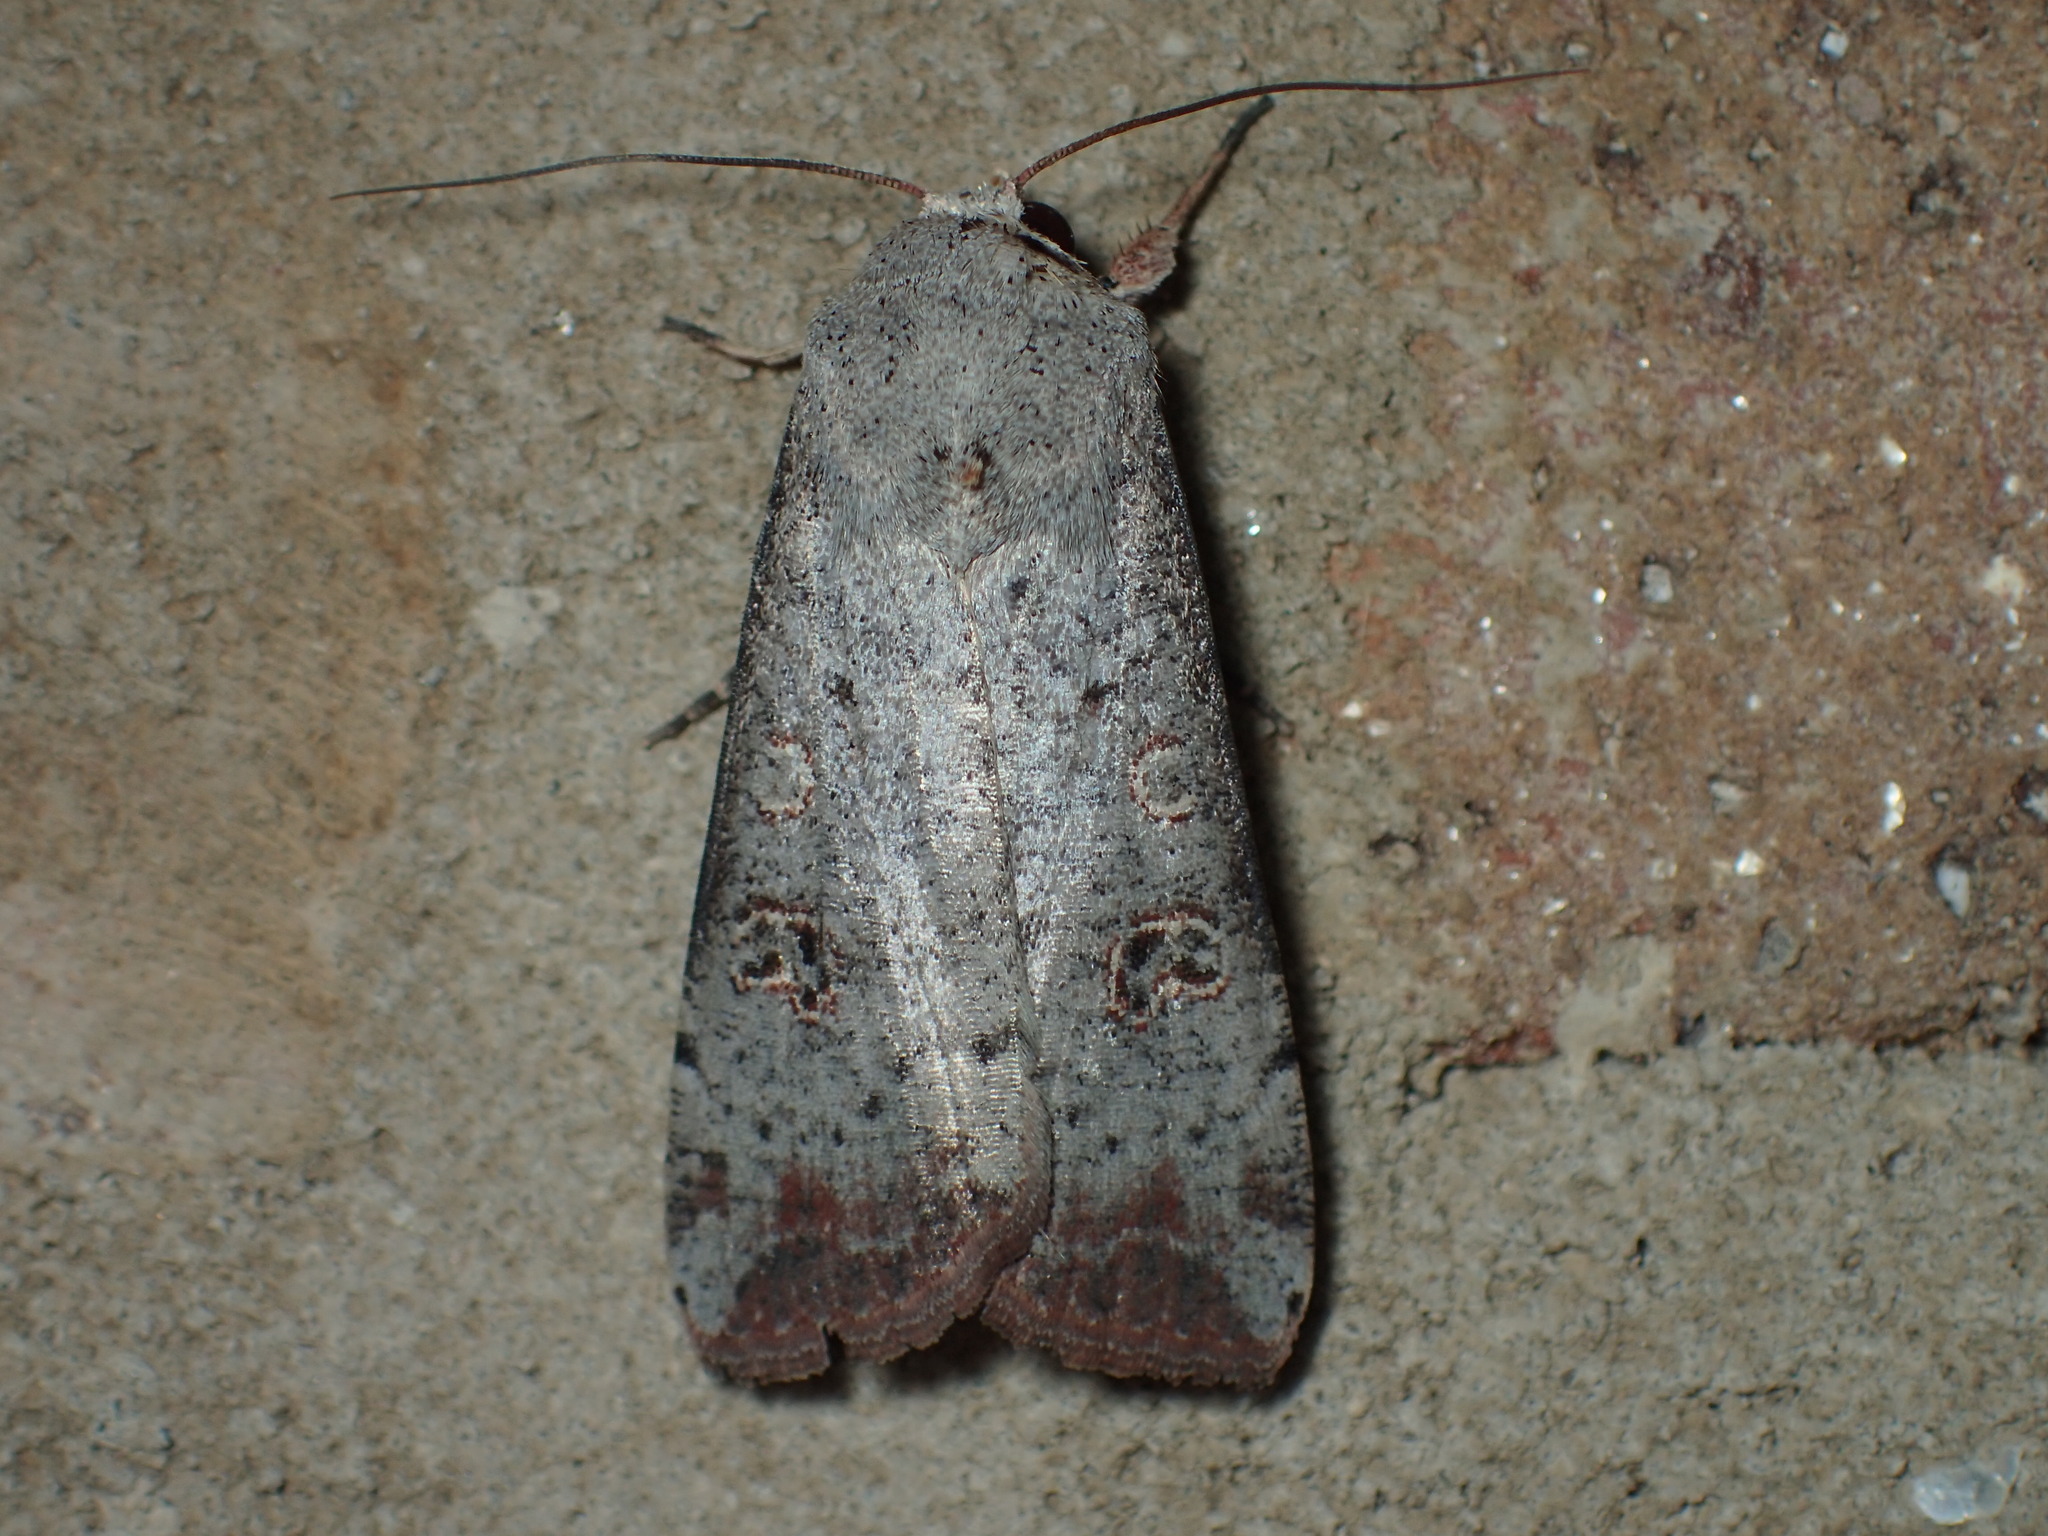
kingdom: Animalia
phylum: Arthropoda
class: Insecta
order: Lepidoptera
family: Noctuidae
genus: Anicla
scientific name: Anicla infecta
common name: Green cutworm
